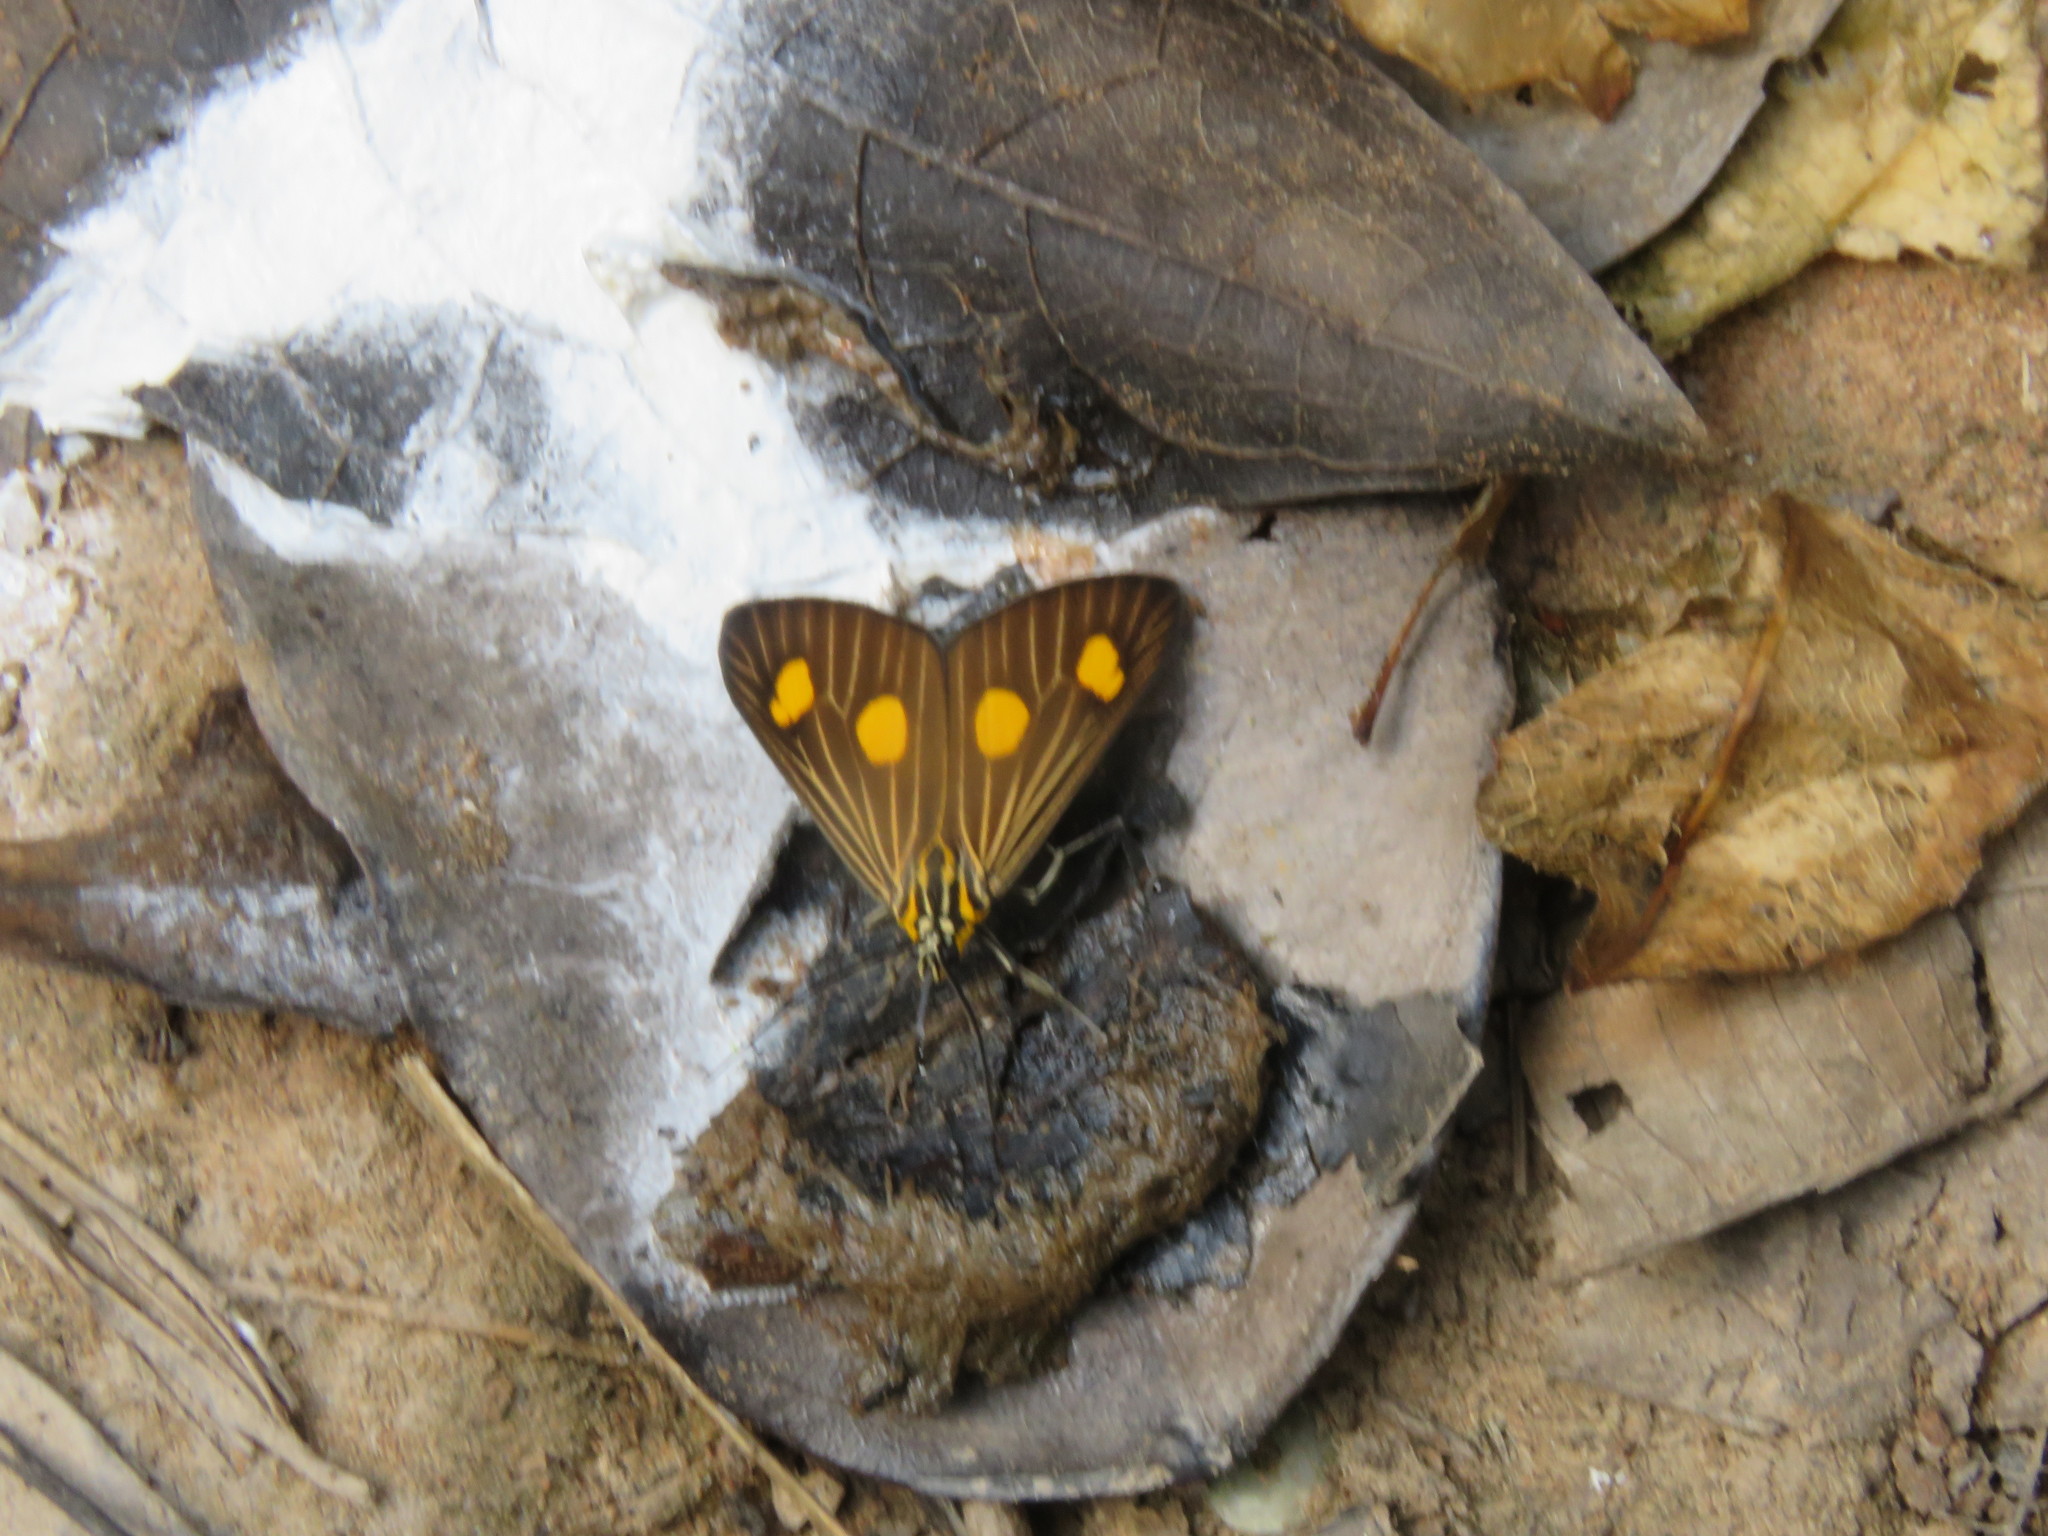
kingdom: Animalia
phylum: Arthropoda
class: Insecta
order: Lepidoptera
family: Notodontidae
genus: Erbessa
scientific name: Erbessa graba
